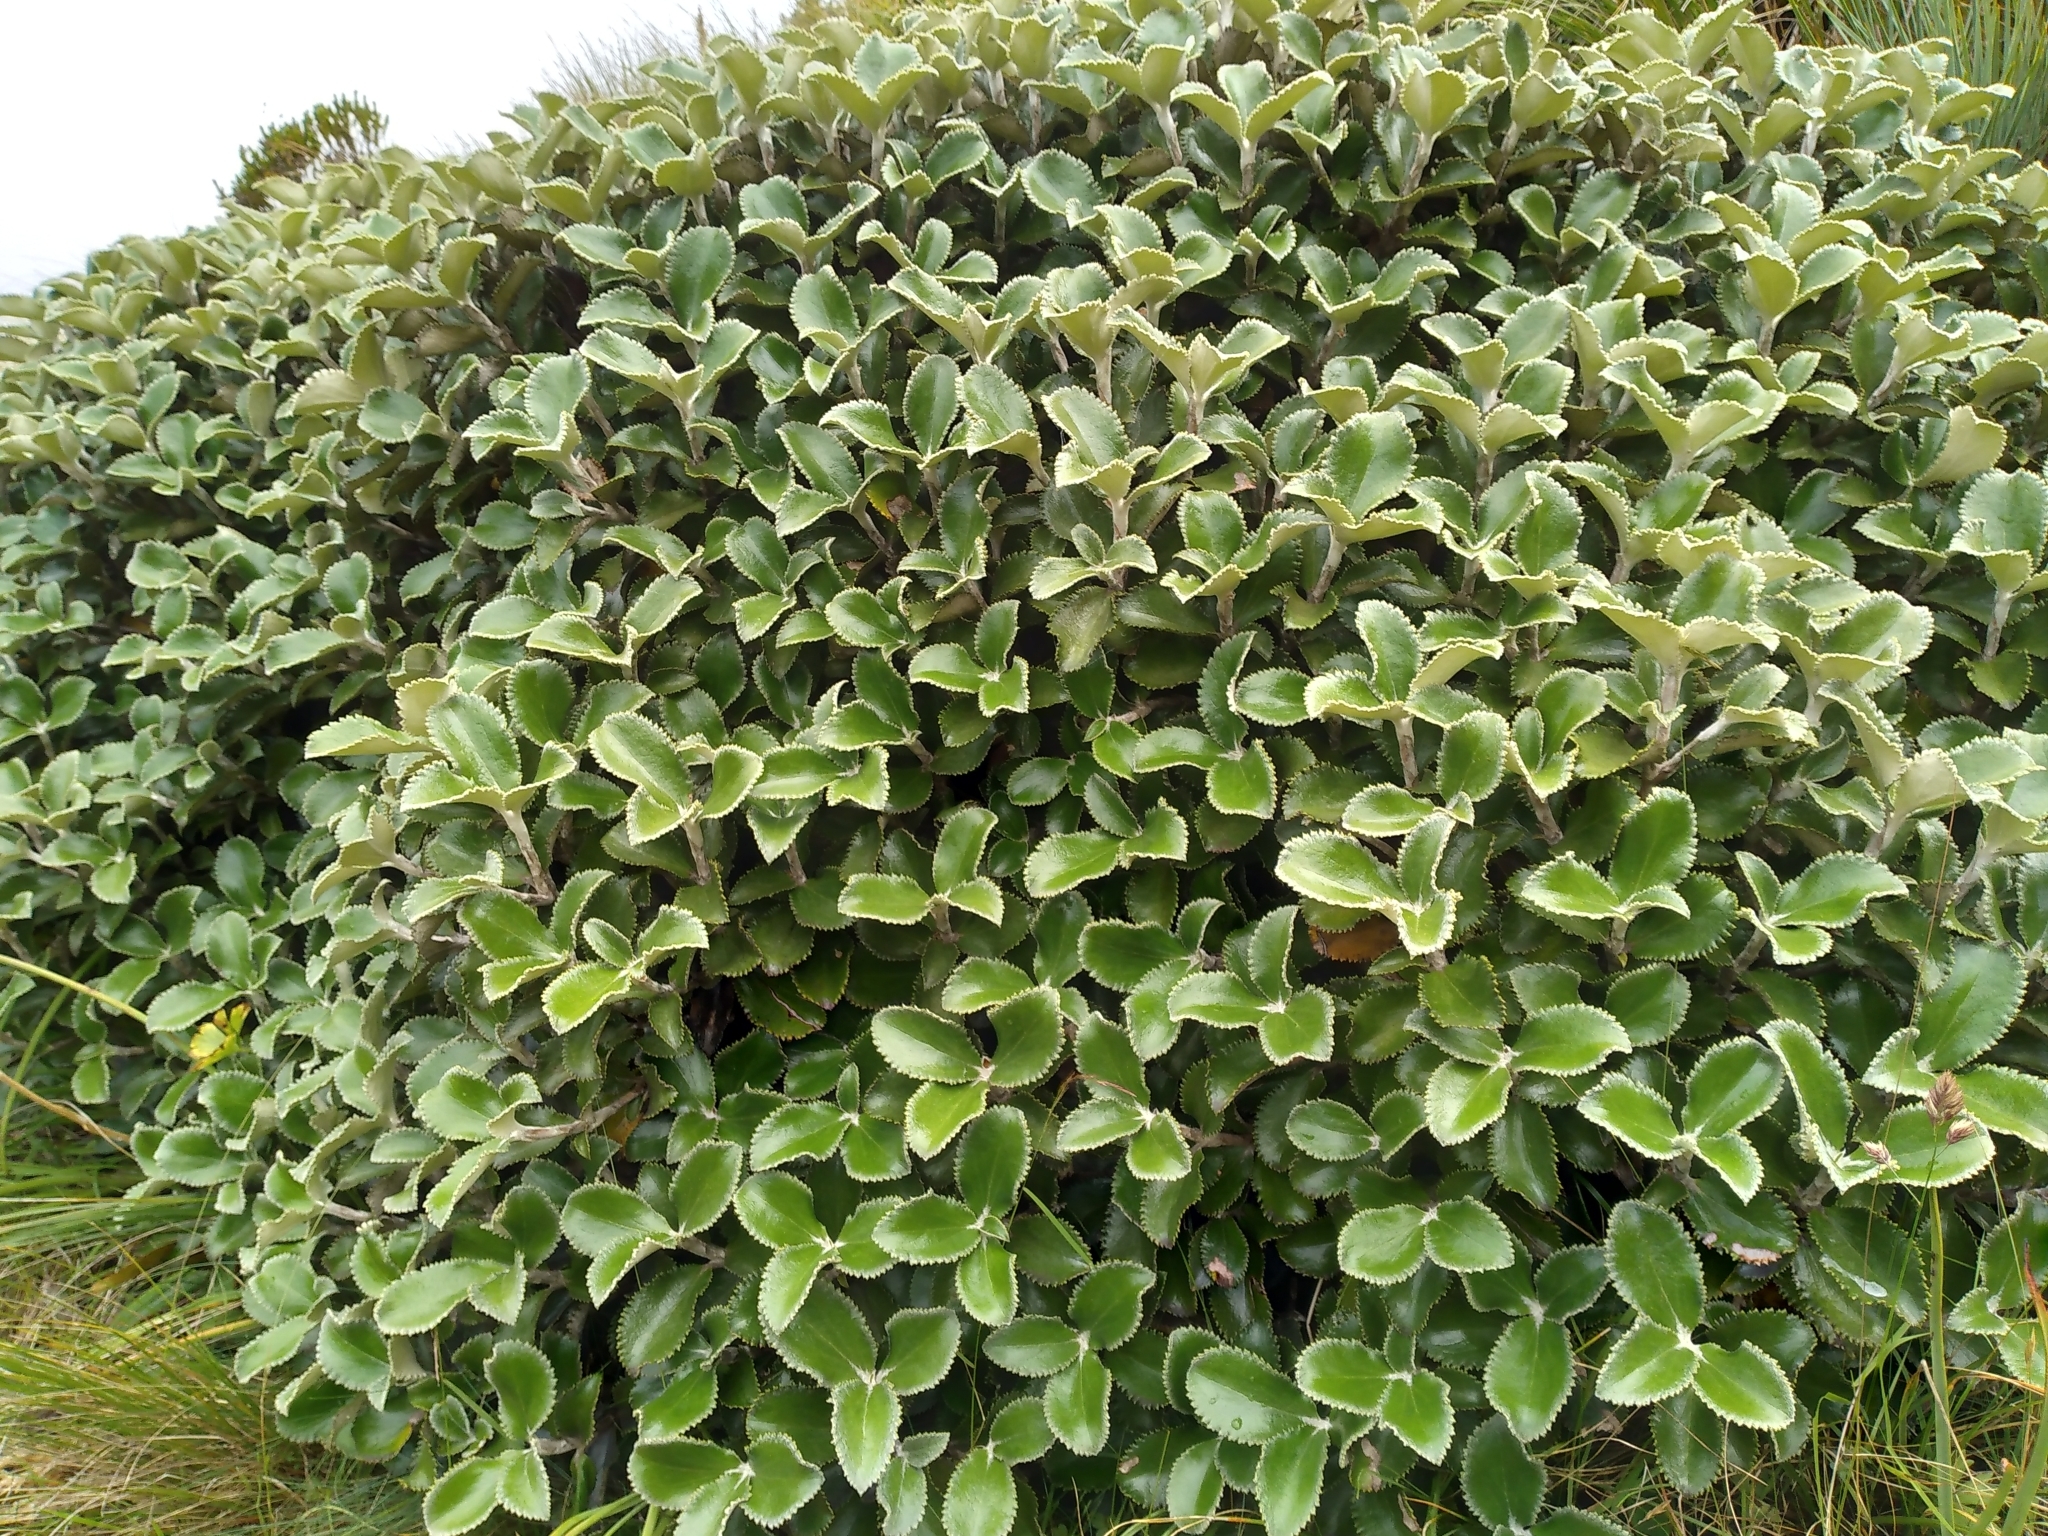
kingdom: Plantae
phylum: Tracheophyta
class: Magnoliopsida
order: Asterales
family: Asteraceae
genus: Macrolearia
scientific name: Macrolearia colensoi
